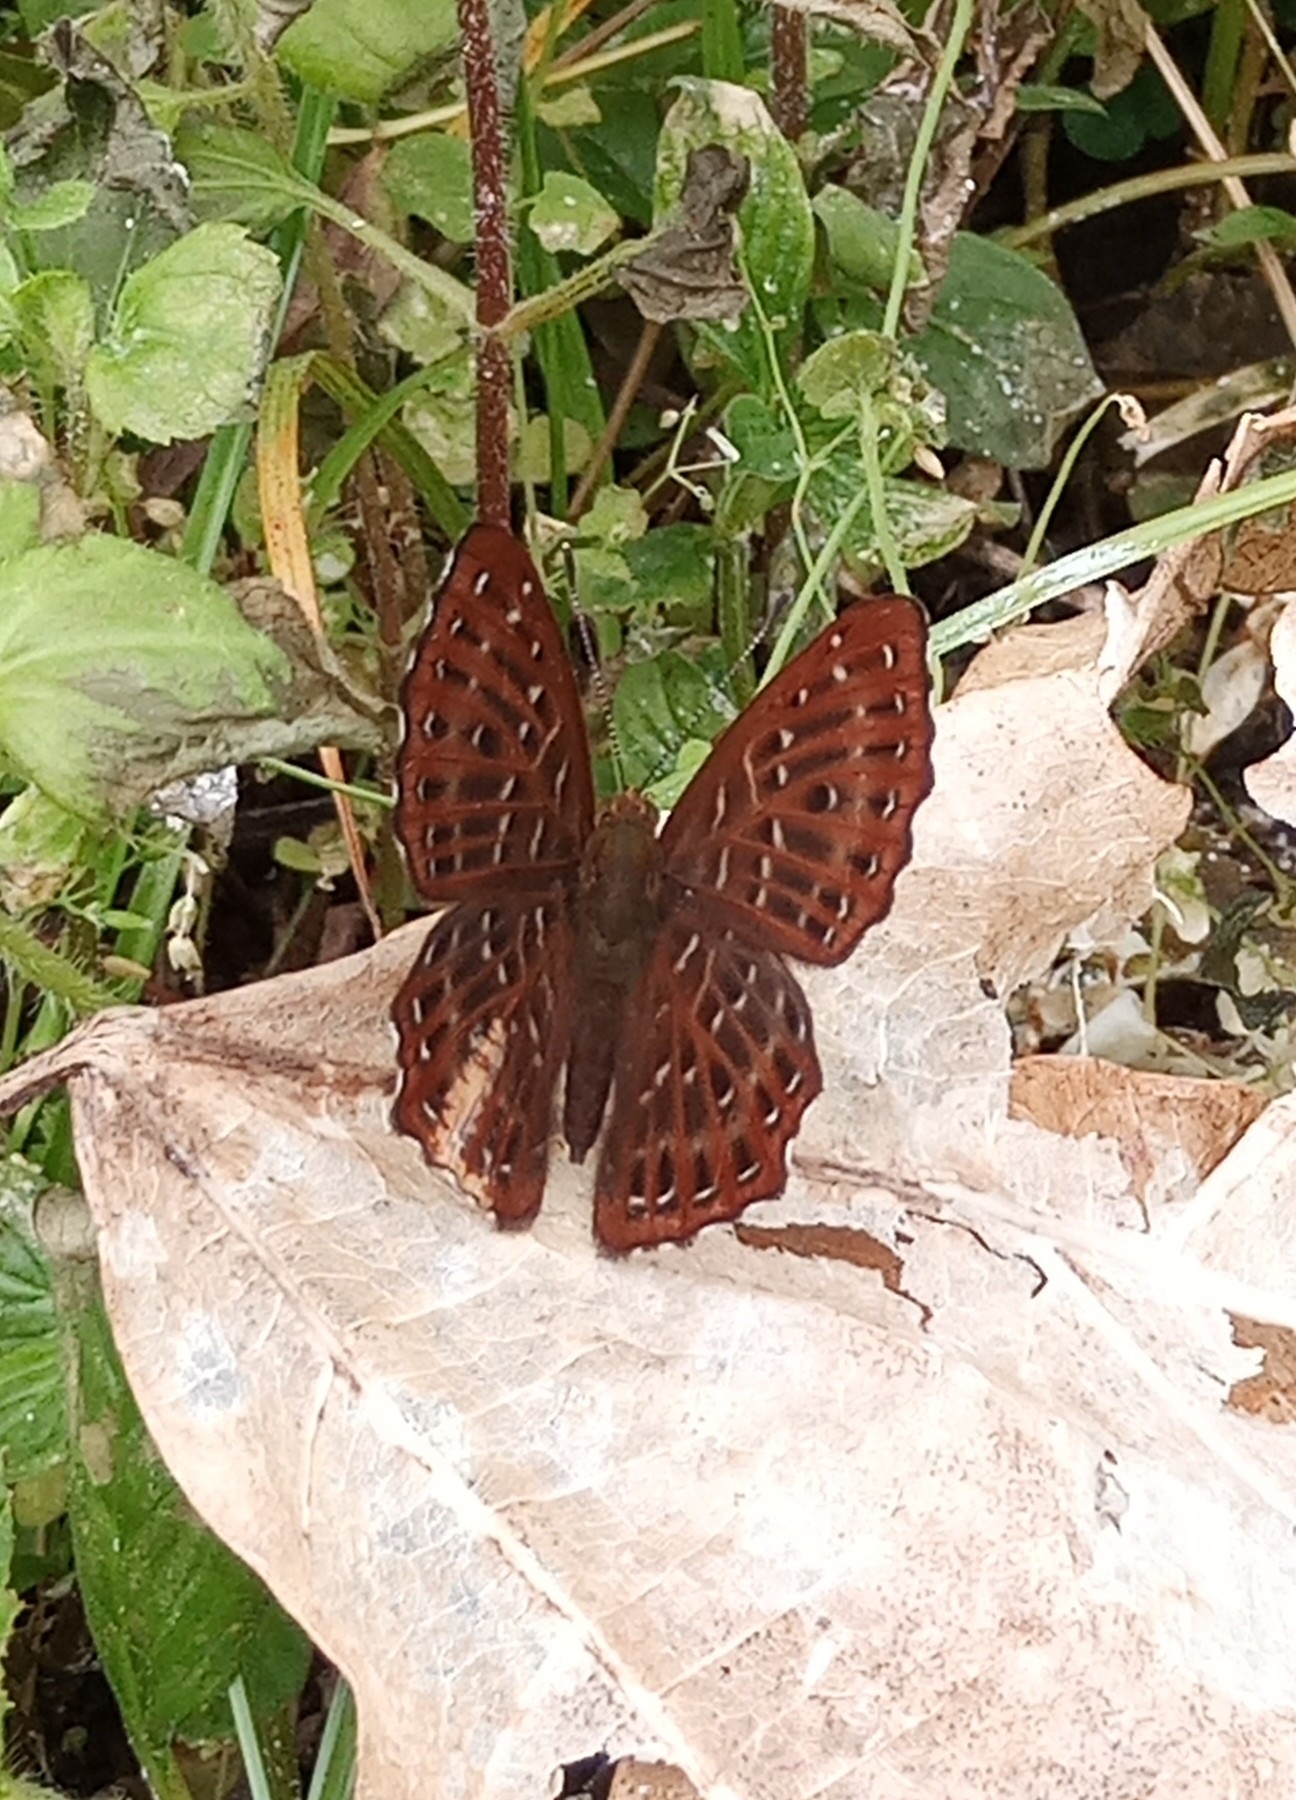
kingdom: Animalia
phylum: Arthropoda
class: Insecta
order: Lepidoptera
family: Riodinidae
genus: Zemeros
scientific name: Zemeros flegyas
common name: Punchinello
